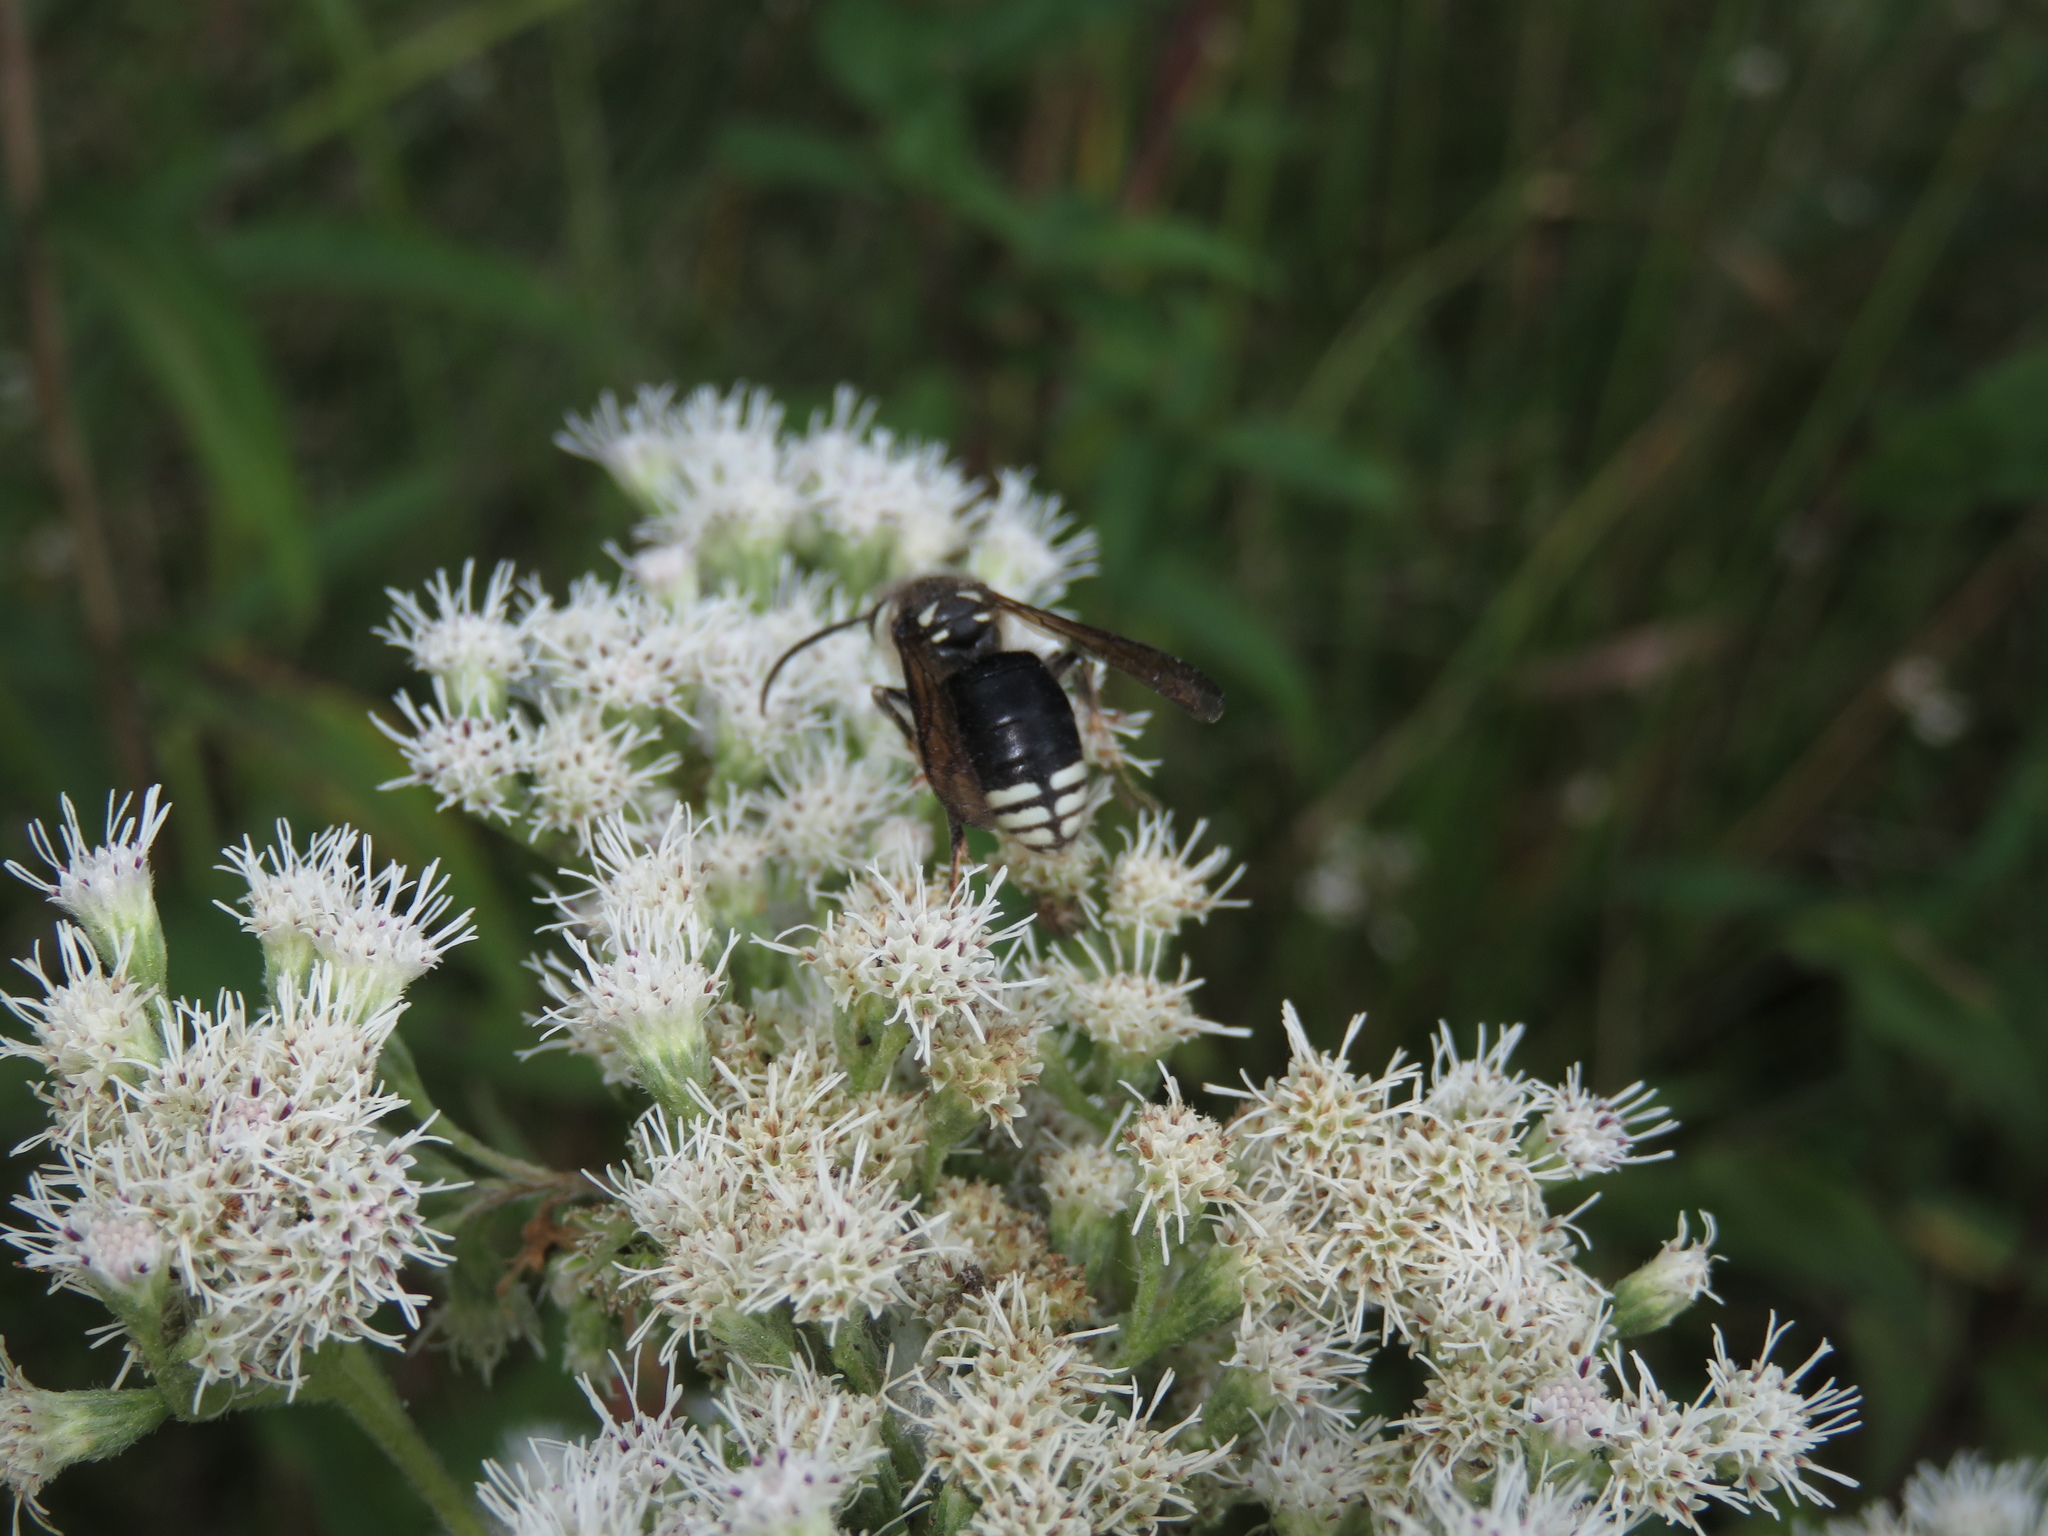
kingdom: Animalia
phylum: Arthropoda
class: Insecta
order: Hymenoptera
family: Vespidae
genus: Dolichovespula
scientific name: Dolichovespula maculata
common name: Bald-faced hornet
